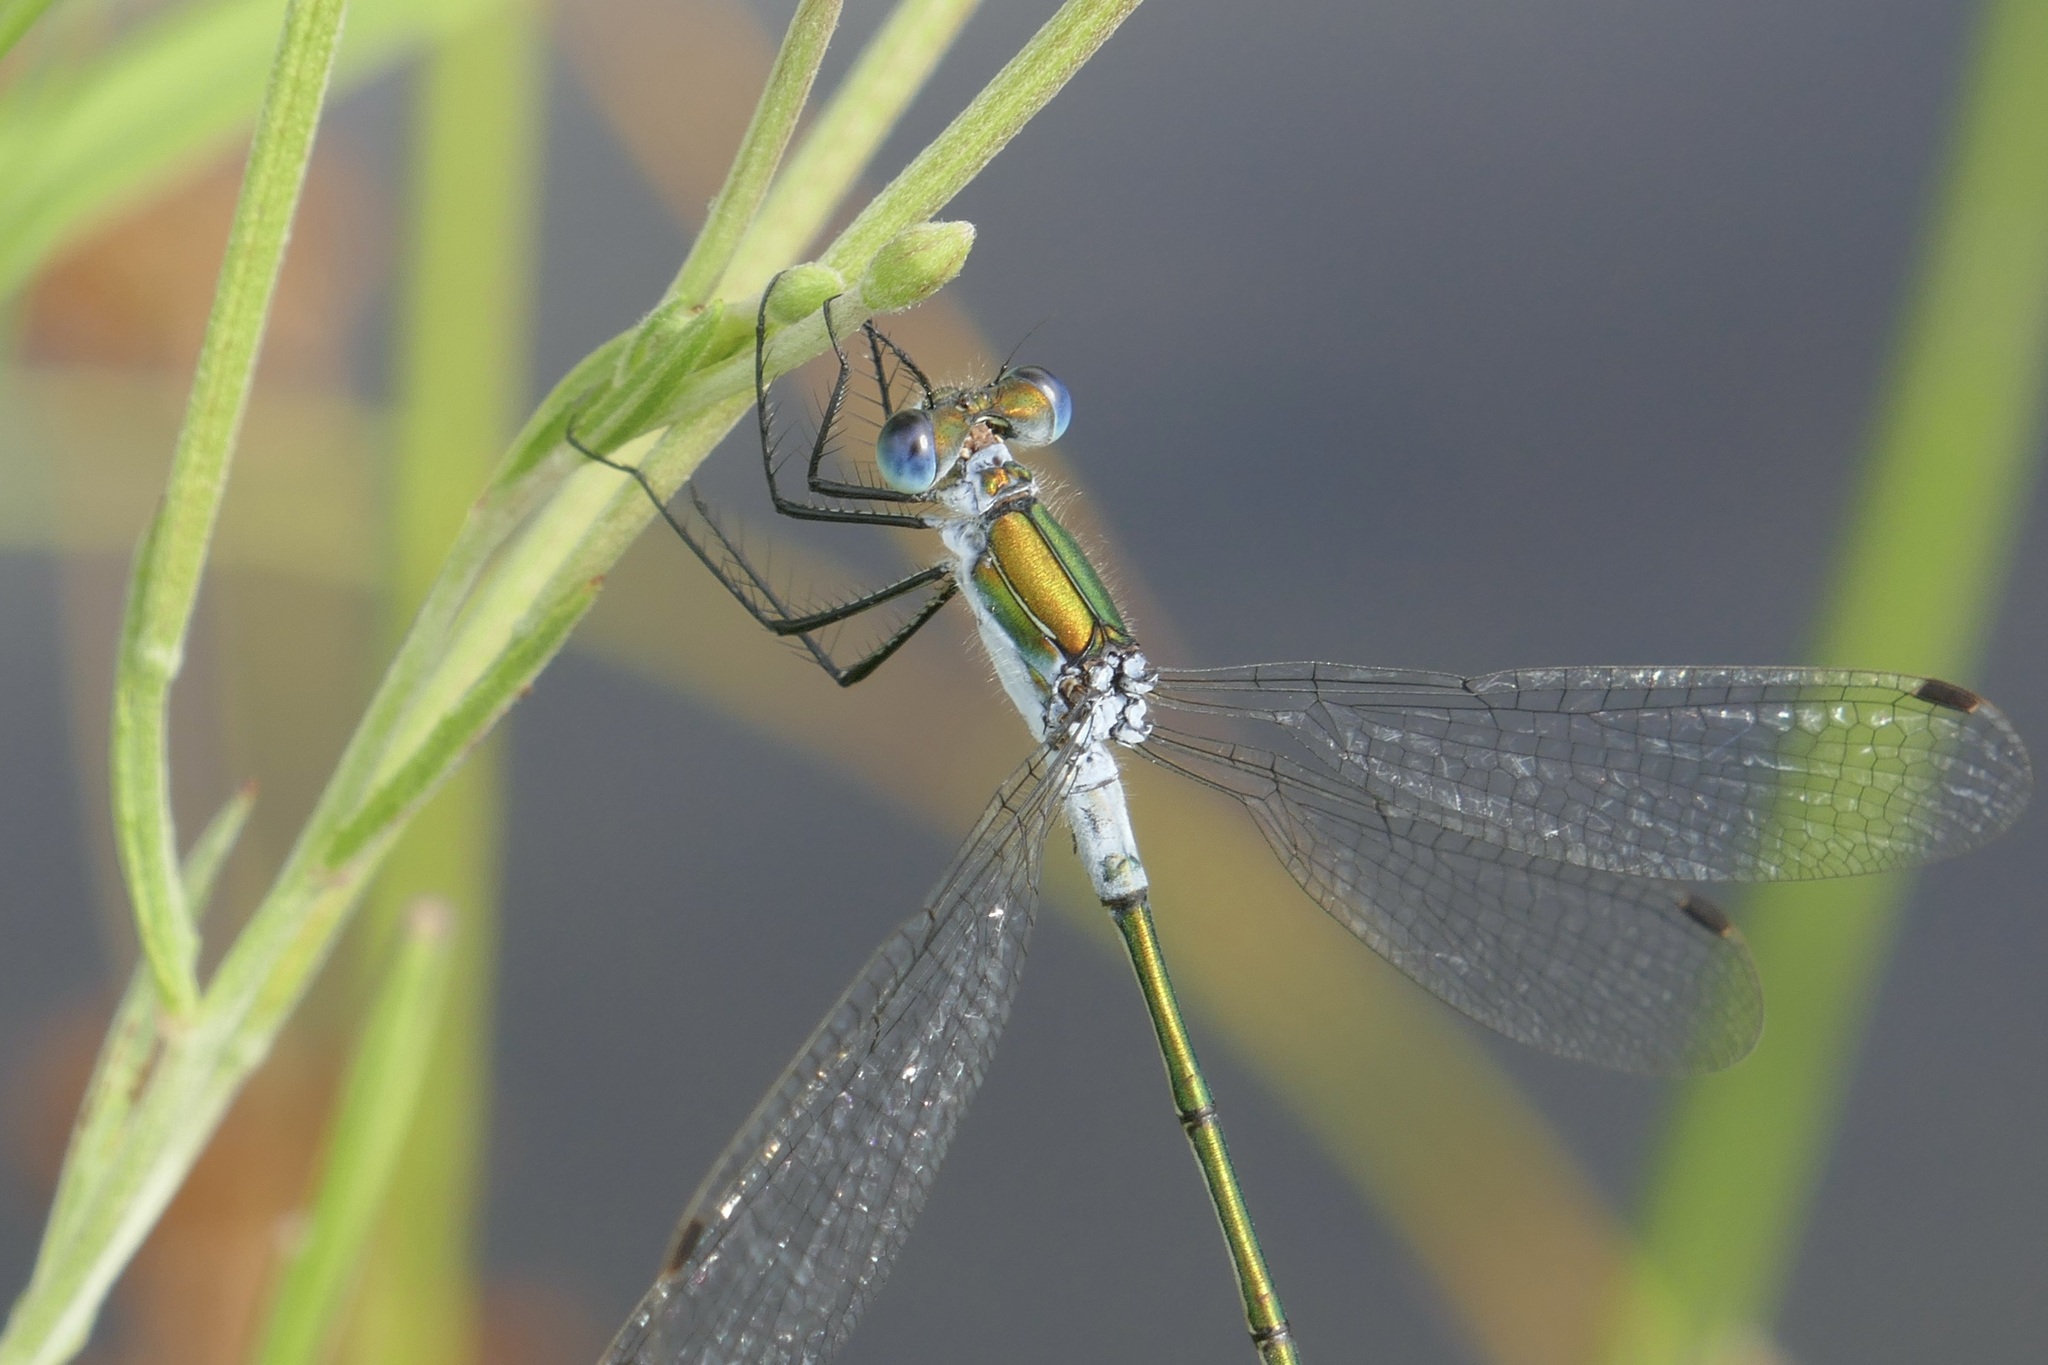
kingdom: Animalia
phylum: Arthropoda
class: Insecta
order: Odonata
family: Lestidae
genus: Lestes
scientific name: Lestes sponsa
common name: Common spreadwing
